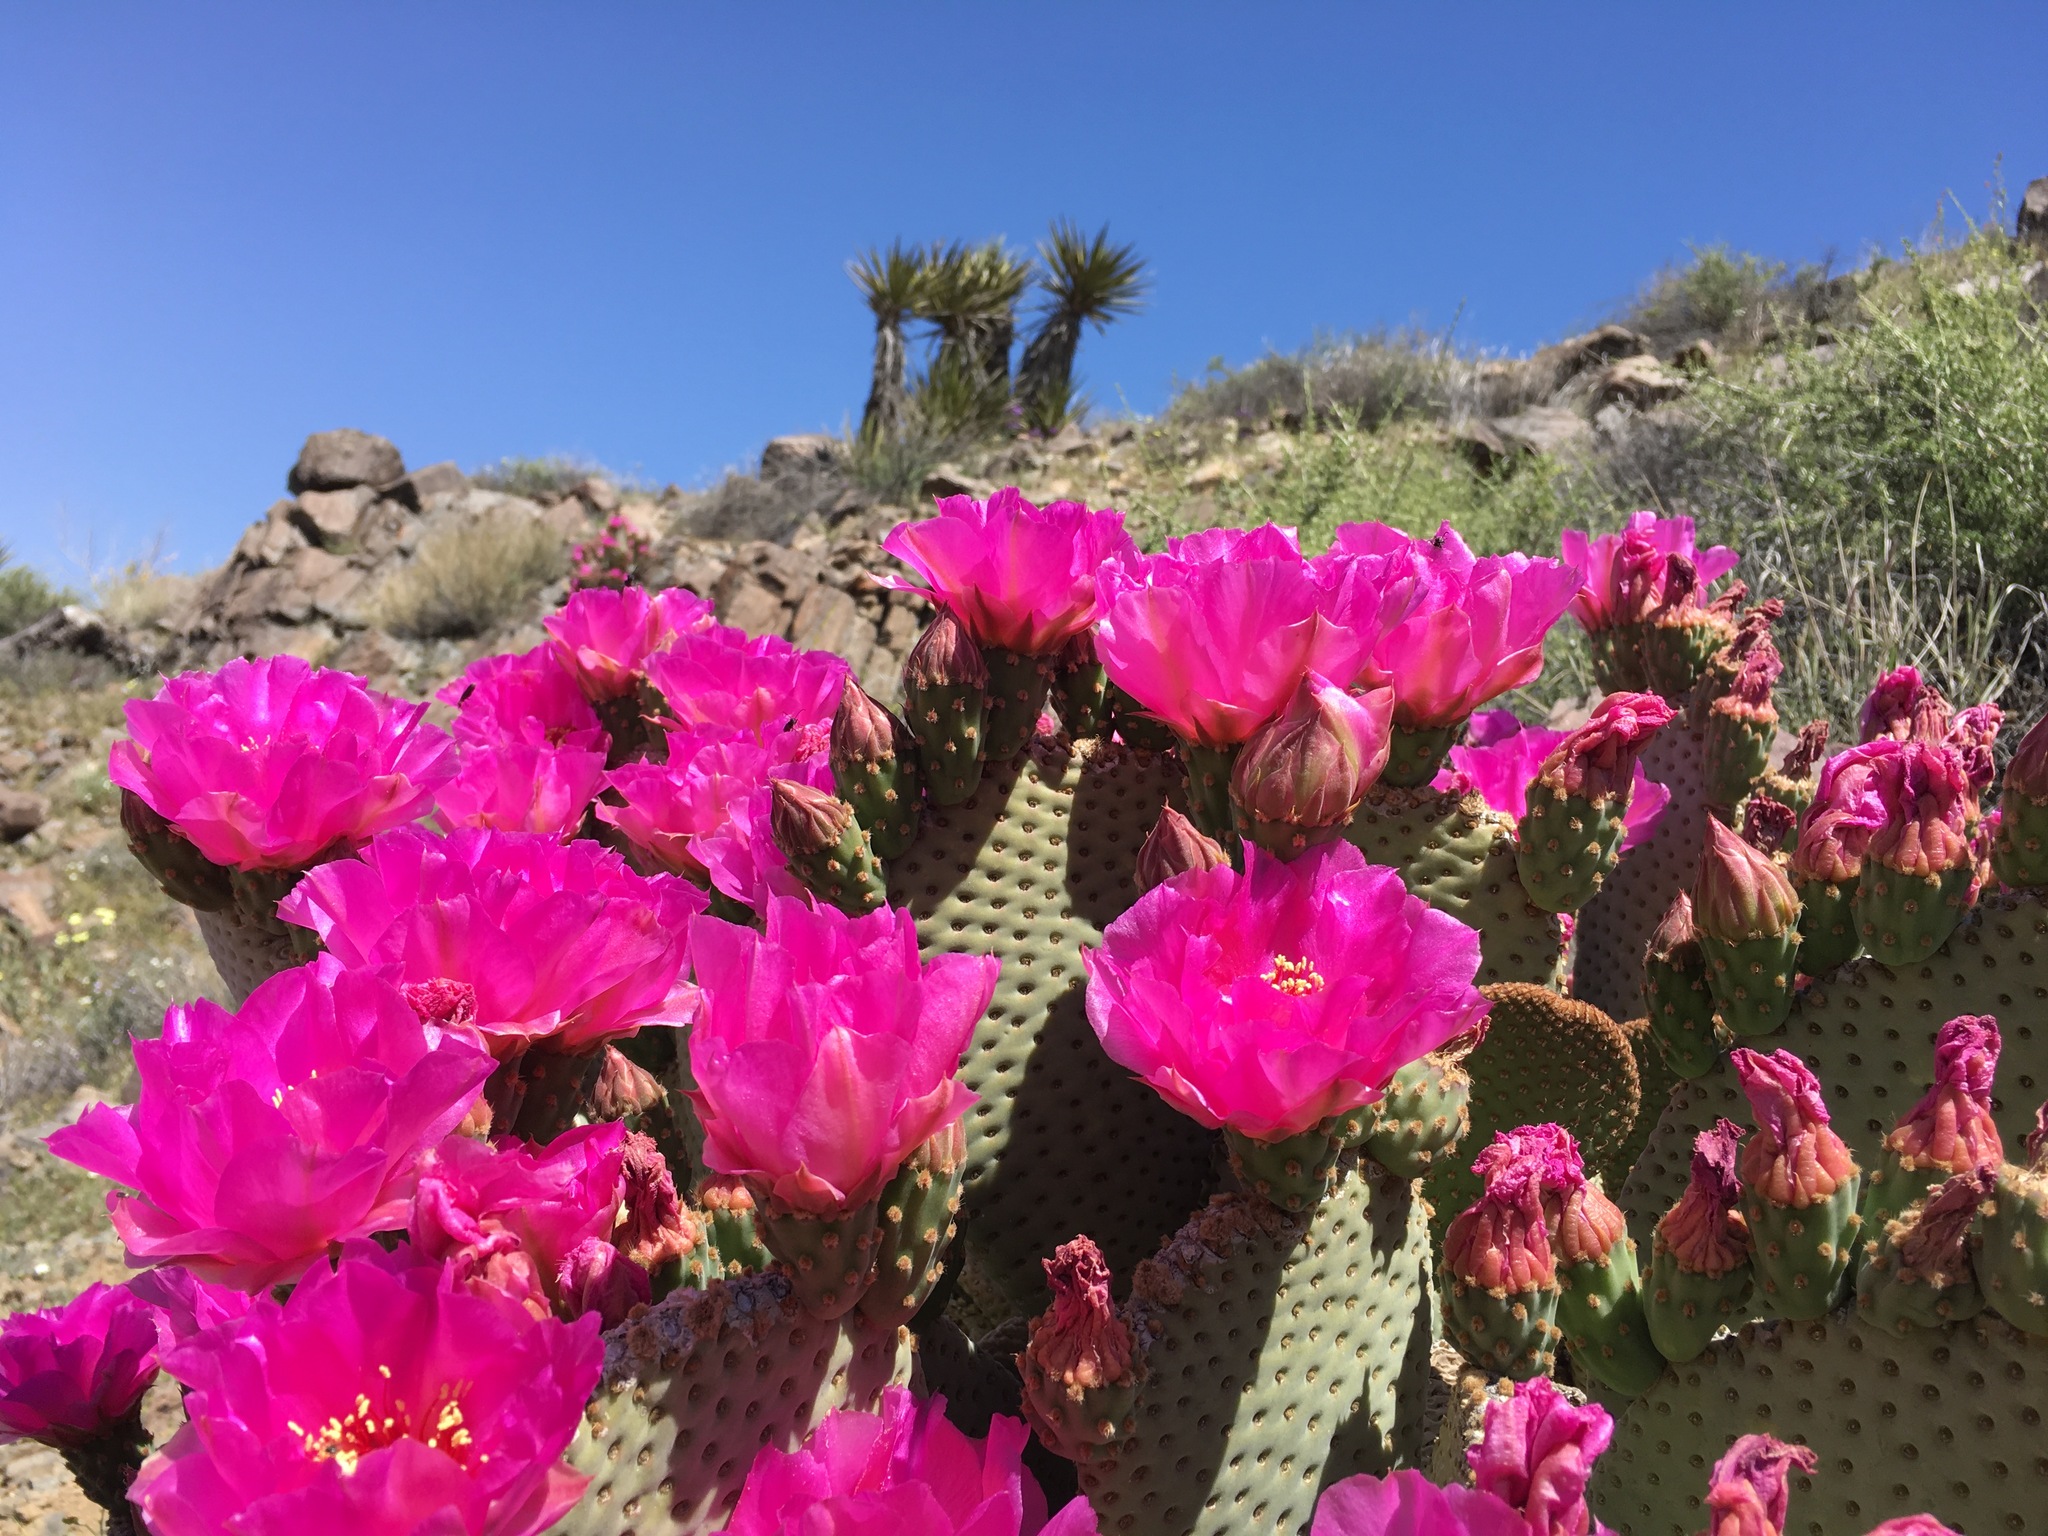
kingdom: Plantae
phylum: Tracheophyta
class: Magnoliopsida
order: Caryophyllales
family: Cactaceae
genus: Opuntia
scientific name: Opuntia basilaris
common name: Beavertail prickly-pear
